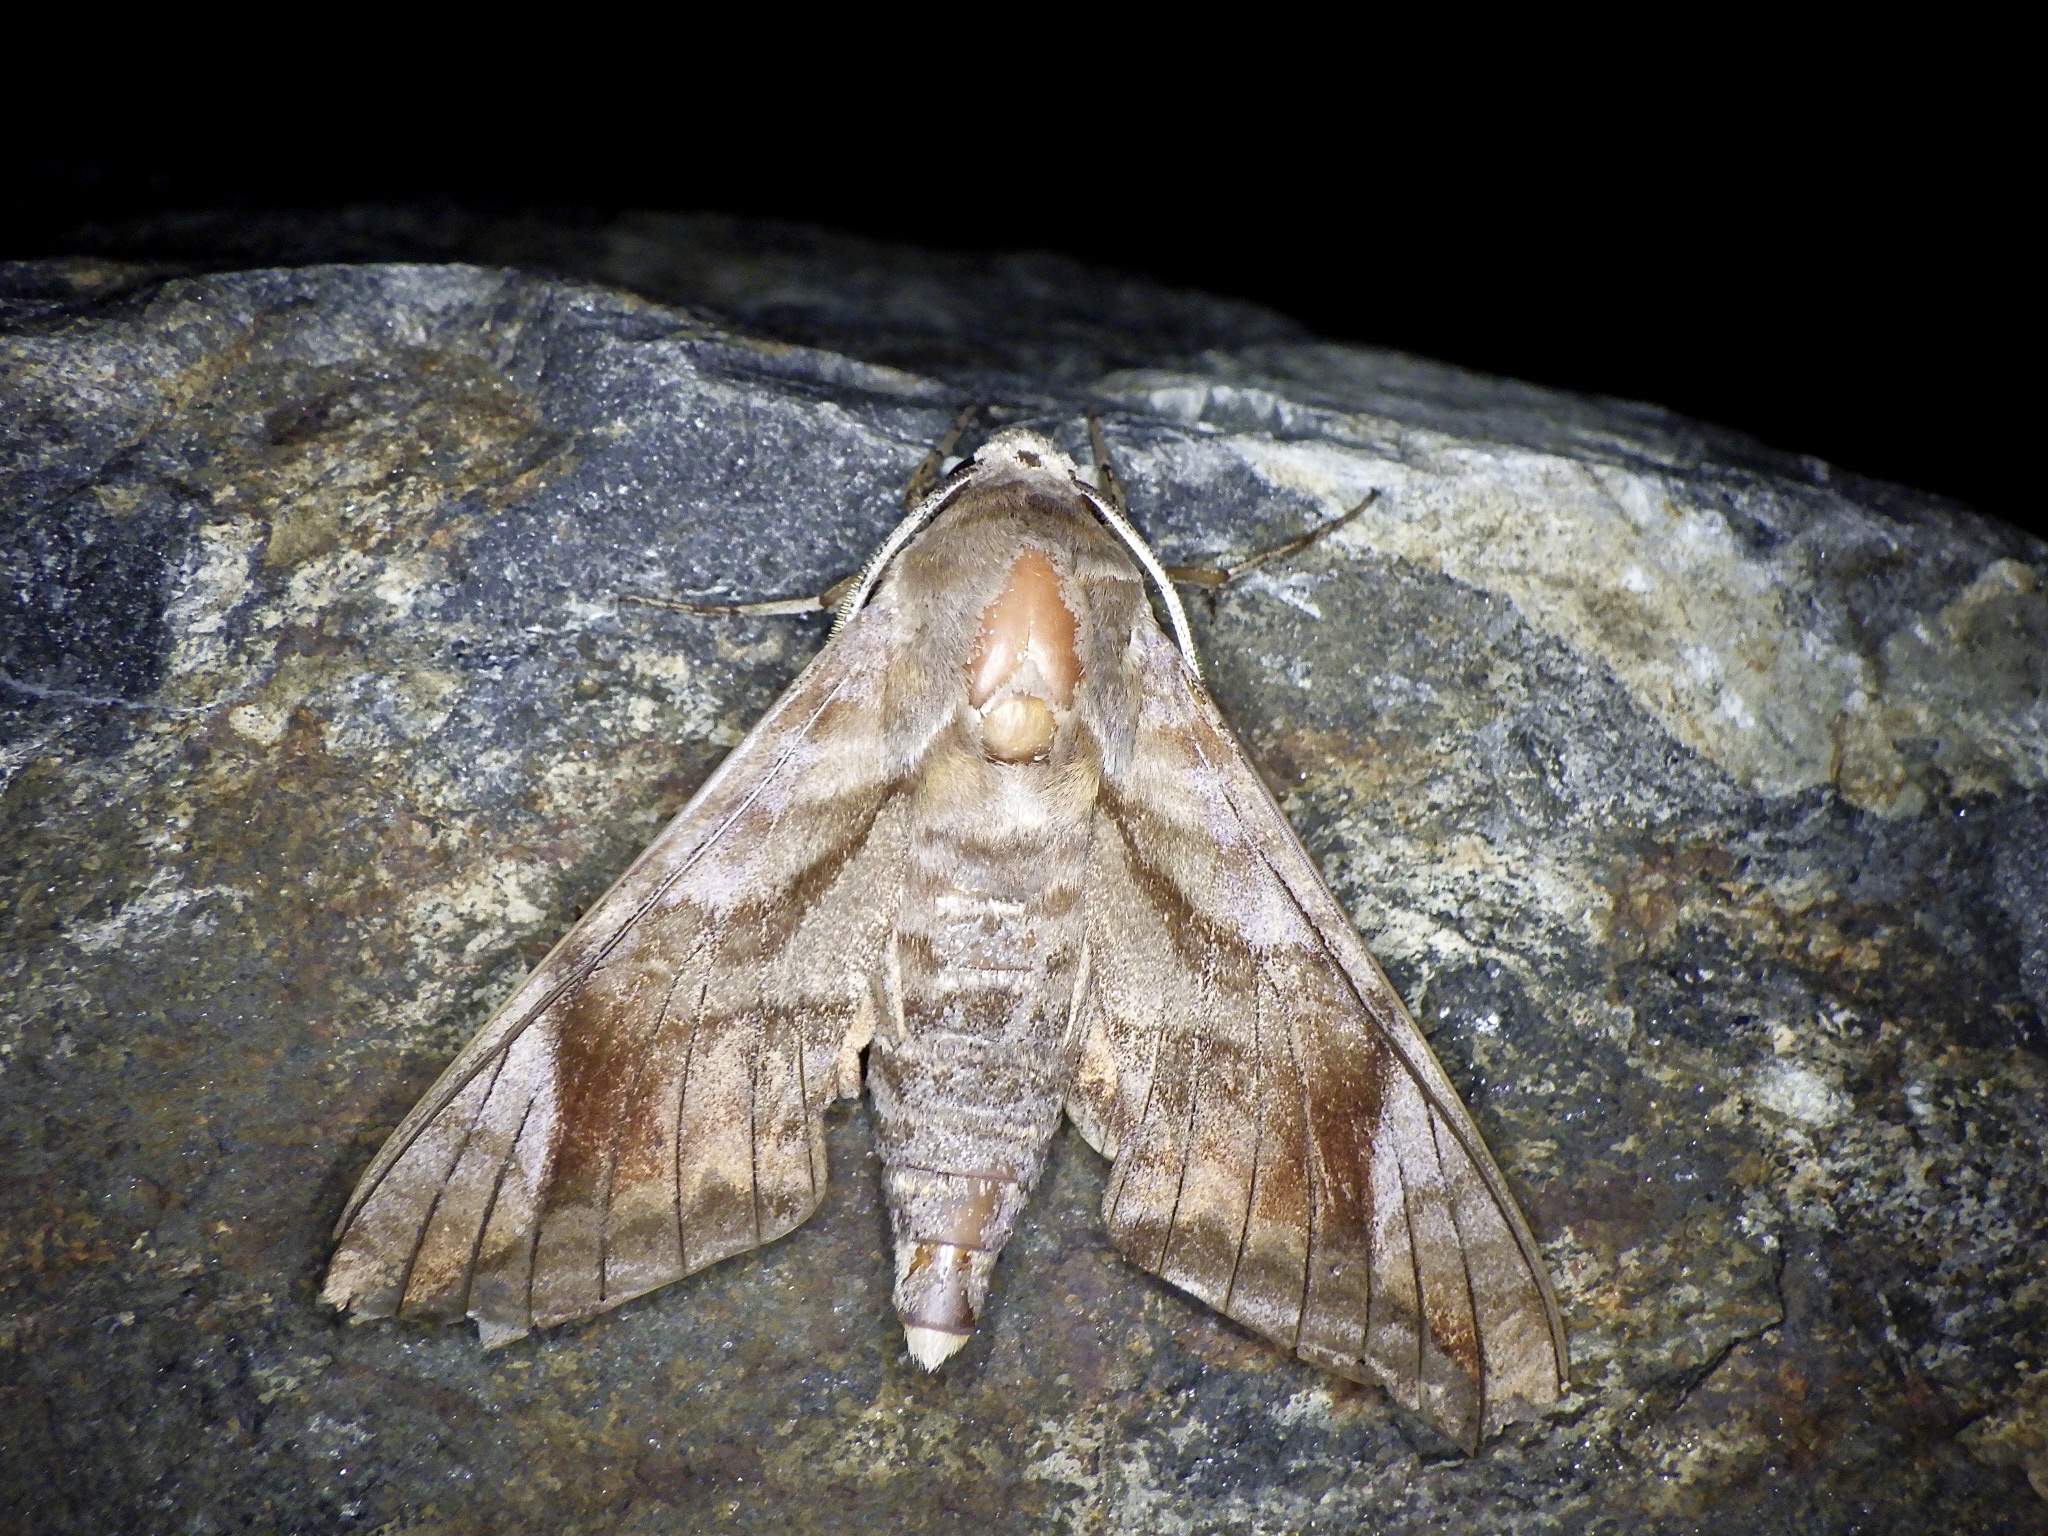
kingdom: Animalia
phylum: Arthropoda
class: Insecta
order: Lepidoptera
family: Sphingidae
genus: Acosmeryx
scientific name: Acosmeryx naga
